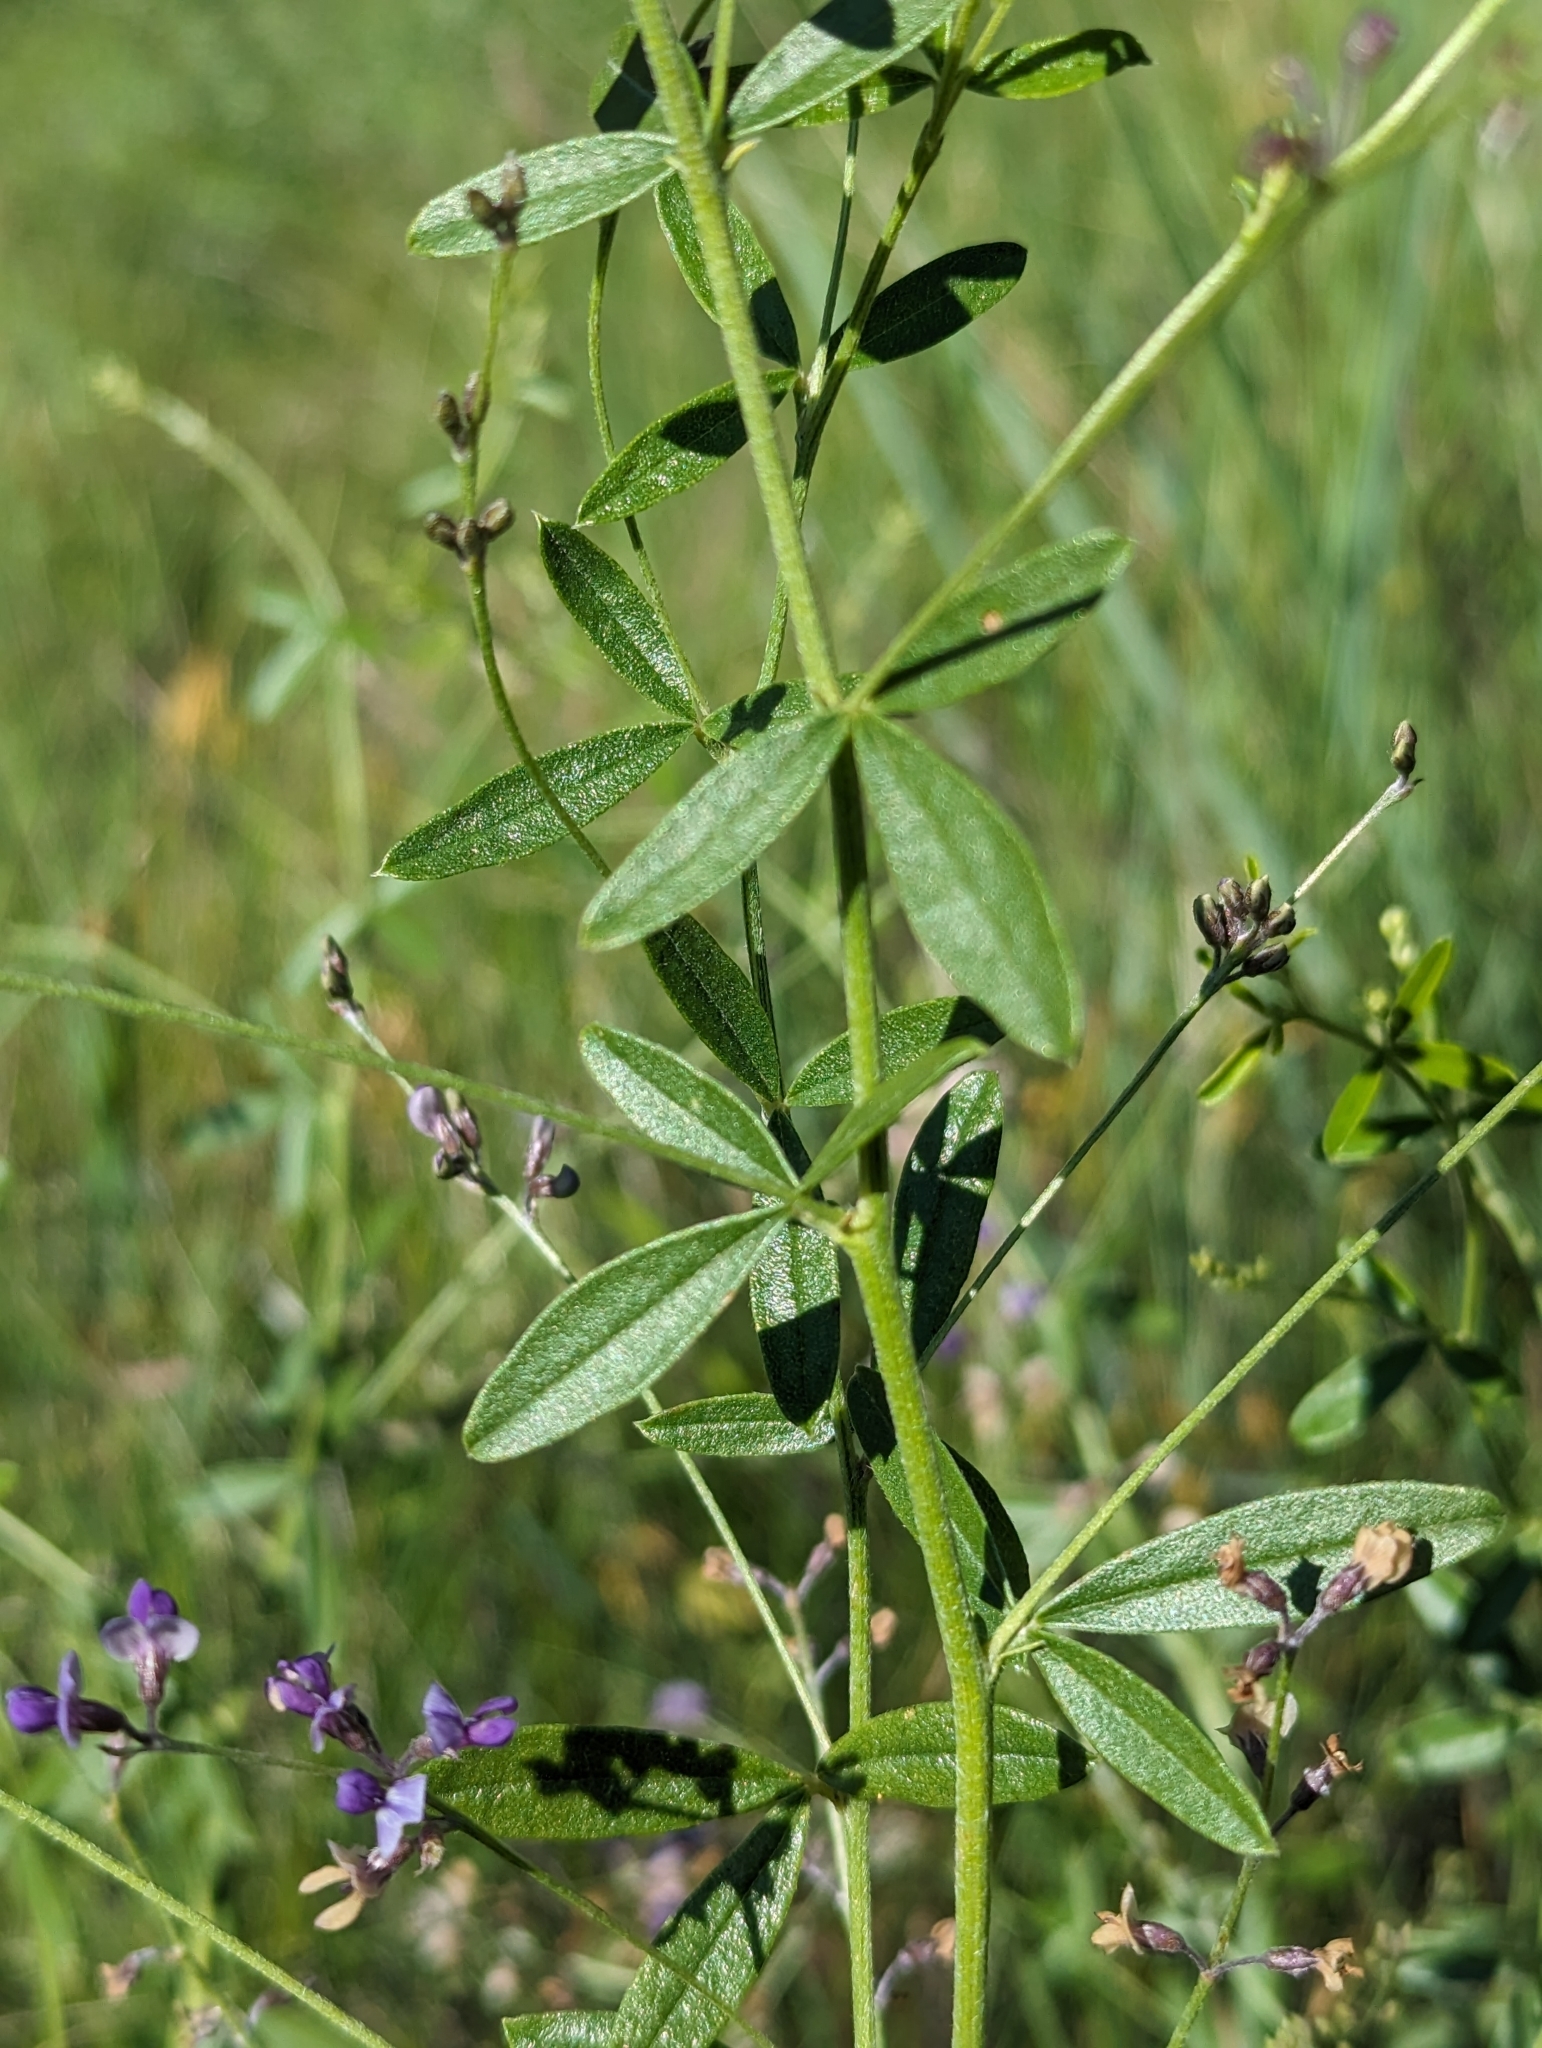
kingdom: Plantae
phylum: Tracheophyta
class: Magnoliopsida
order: Fabales
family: Fabaceae
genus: Pediomelum
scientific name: Pediomelum tenuiflorum
